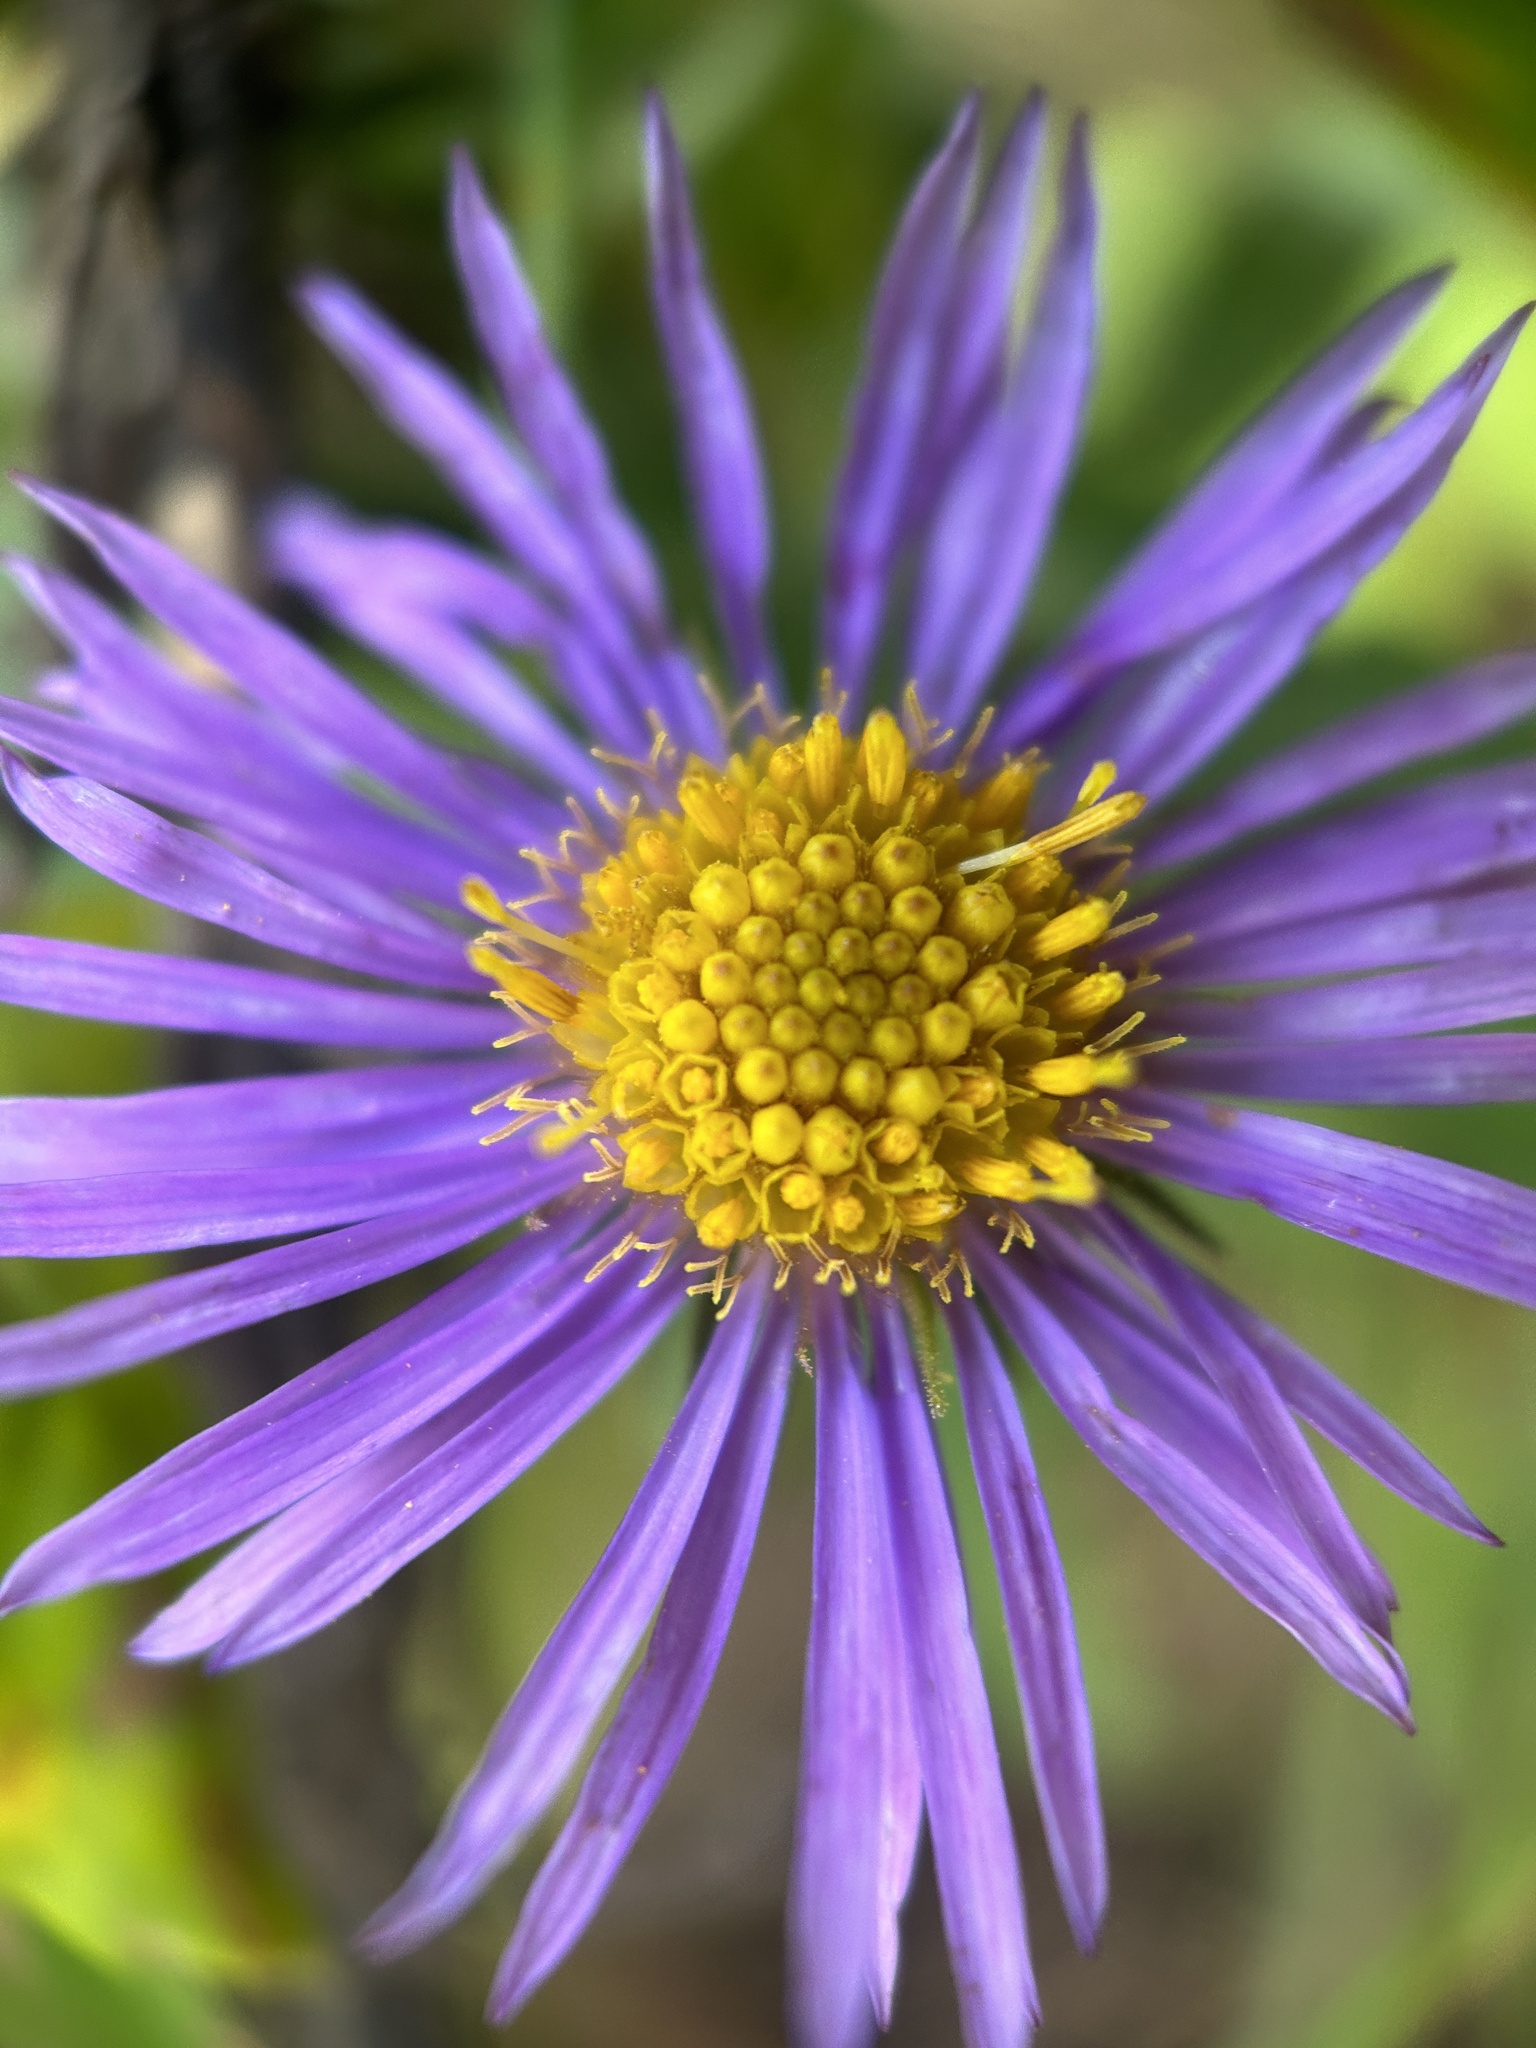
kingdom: Plantae
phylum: Tracheophyta
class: Magnoliopsida
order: Asterales
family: Asteraceae
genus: Symphyotrichum
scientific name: Symphyotrichum novae-angliae
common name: Michaelmas daisy
